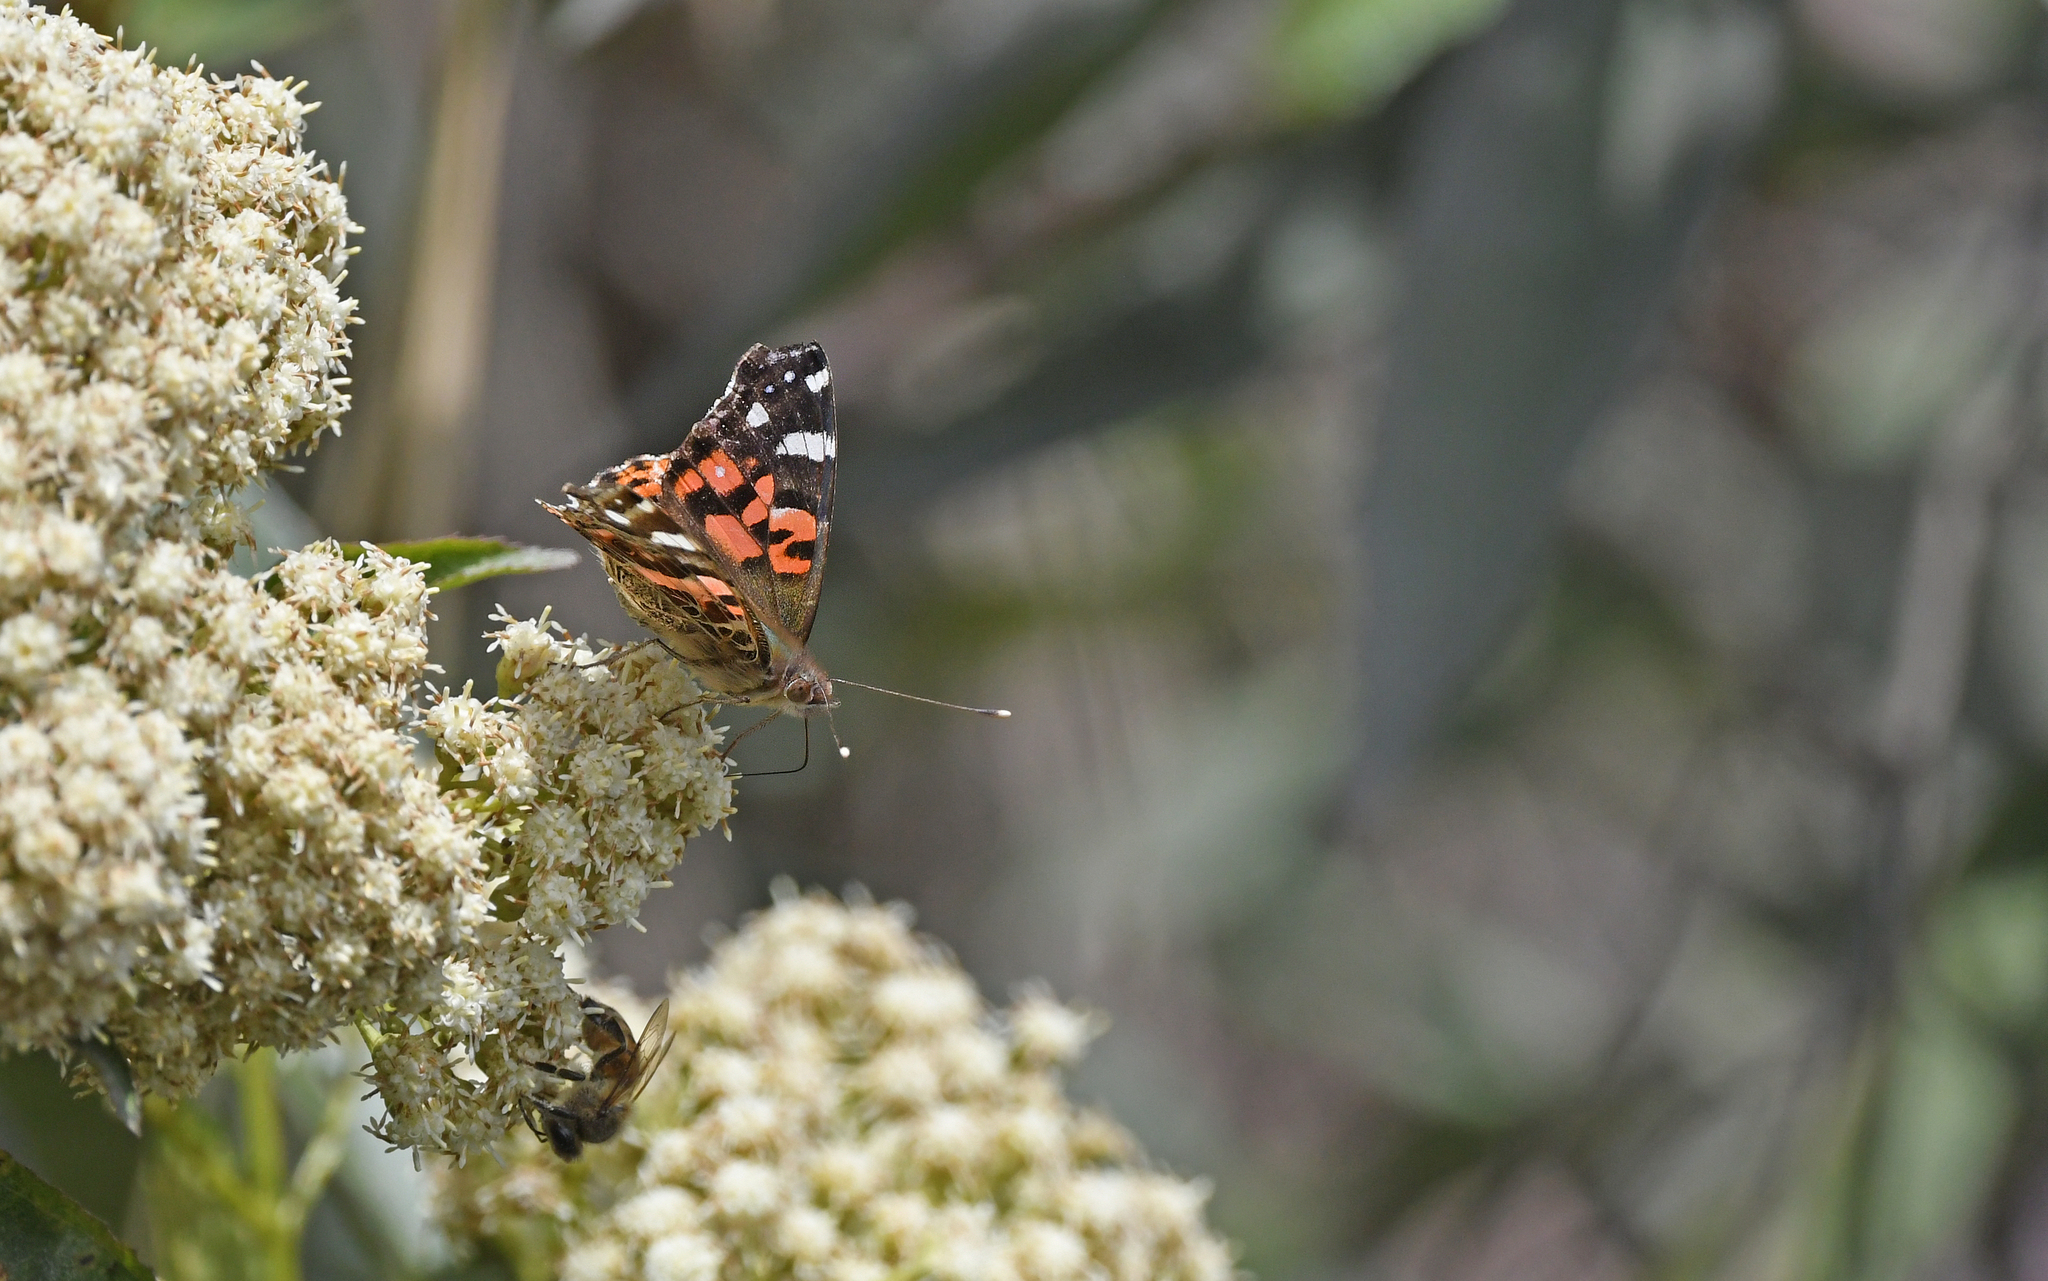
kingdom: Animalia
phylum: Arthropoda
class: Insecta
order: Lepidoptera
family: Nymphalidae
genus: Vanessa
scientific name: Vanessa braziliensis
